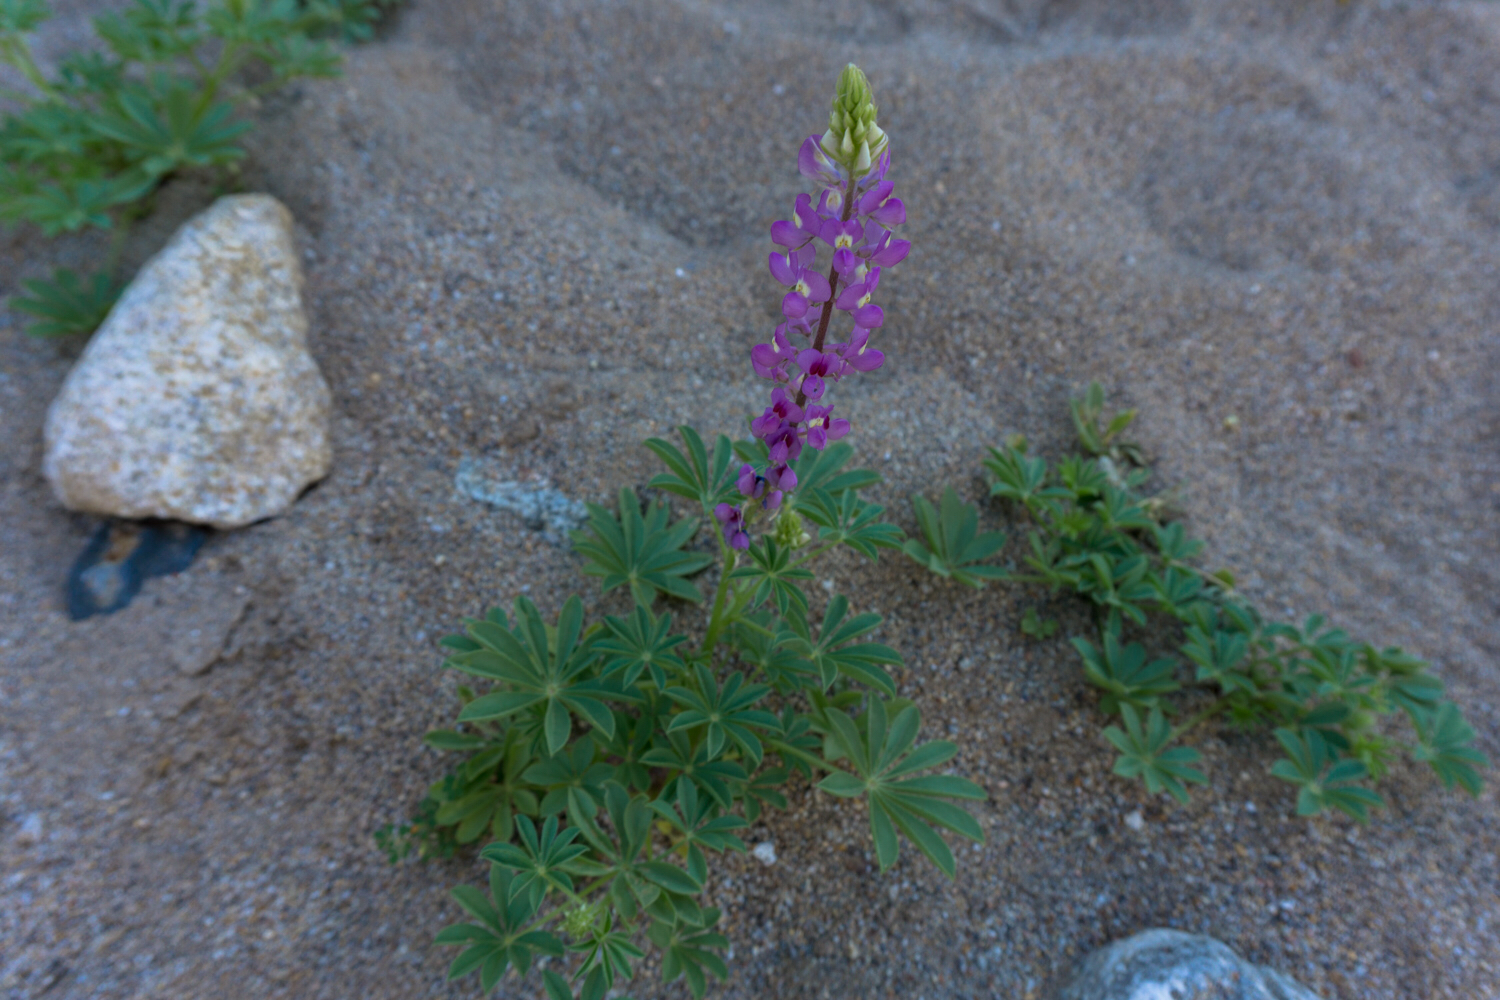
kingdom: Plantae
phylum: Tracheophyta
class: Magnoliopsida
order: Fabales
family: Fabaceae
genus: Lupinus
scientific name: Lupinus arizonicus
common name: Arizona lupine
